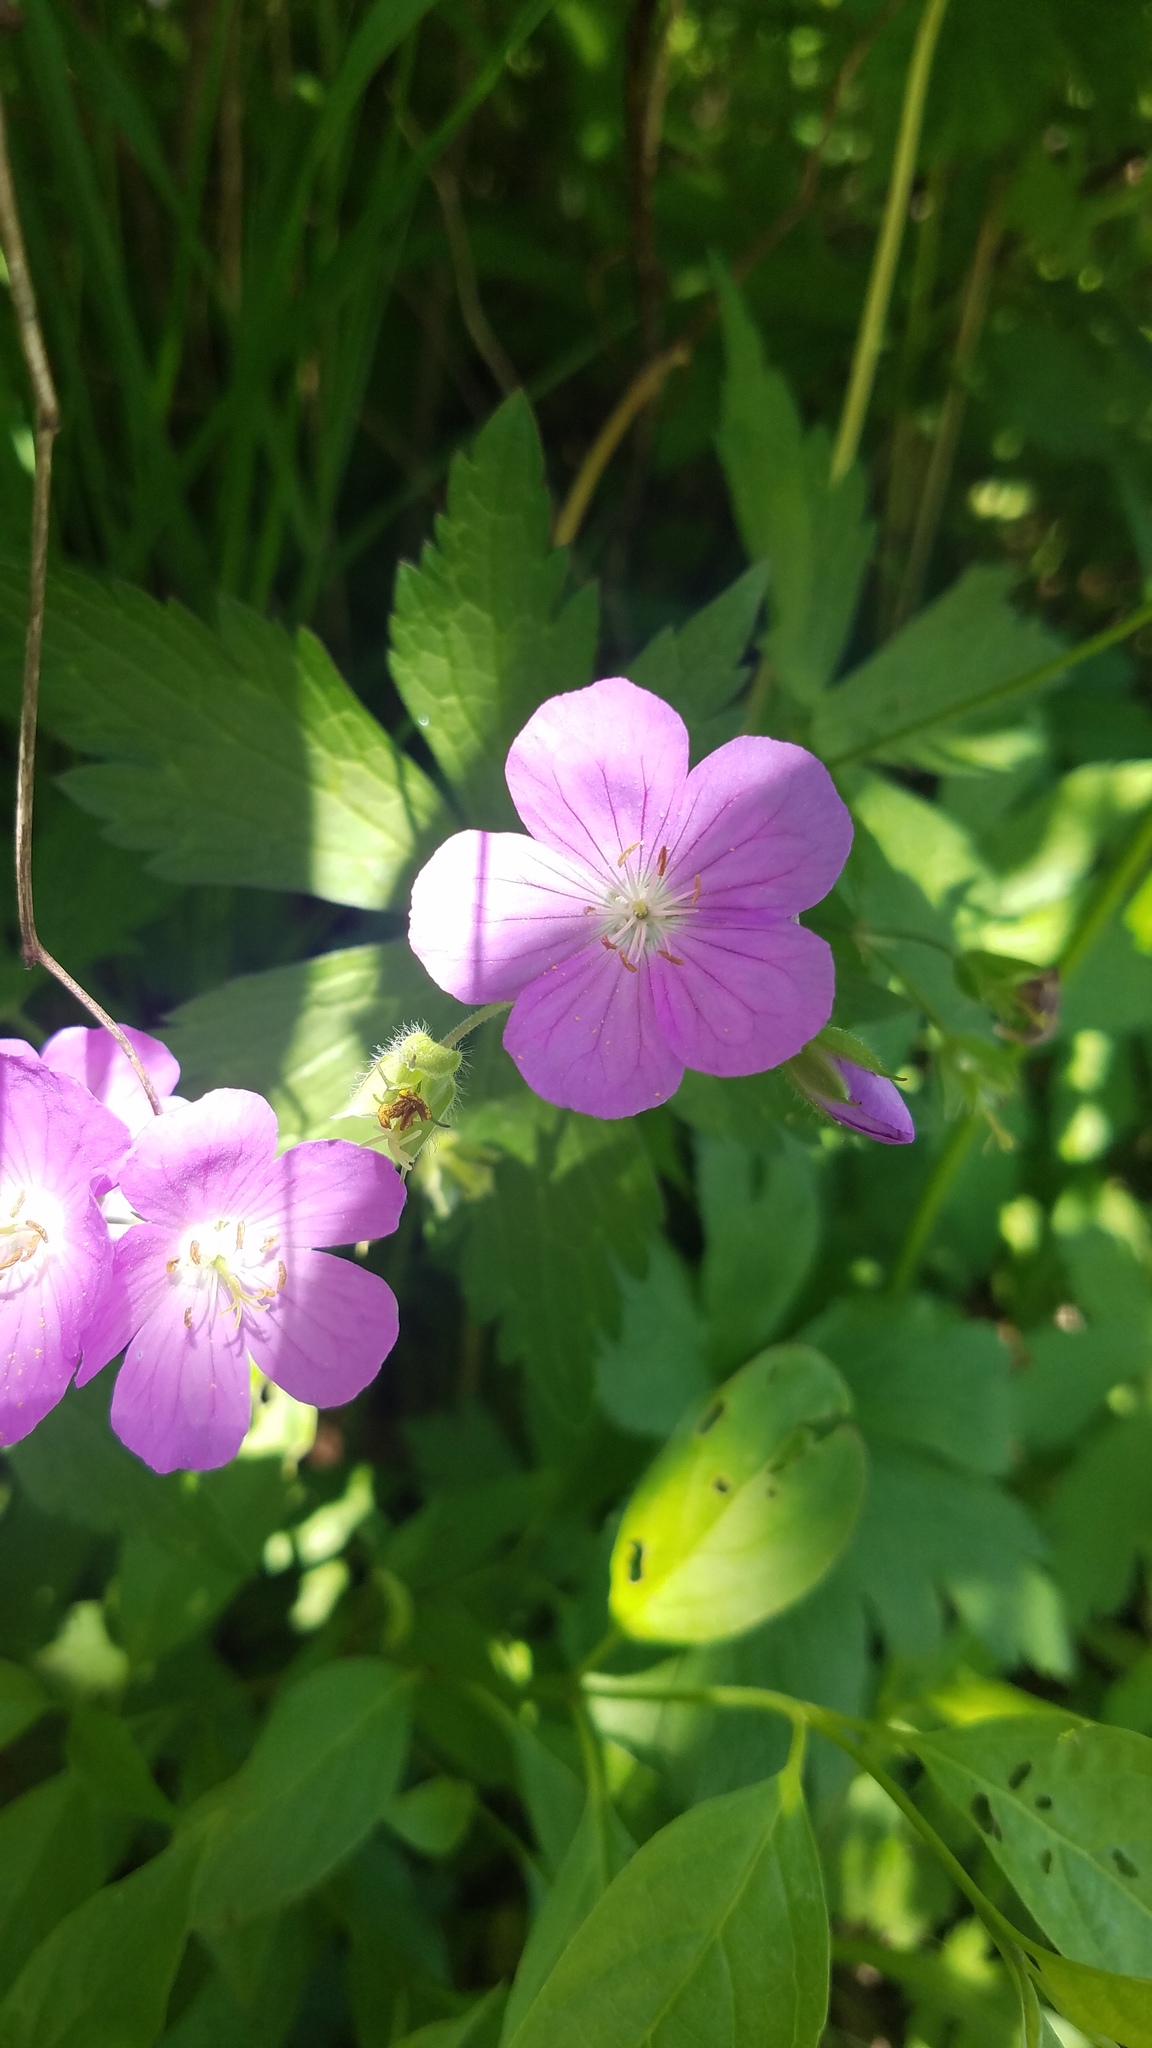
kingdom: Plantae
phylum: Tracheophyta
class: Magnoliopsida
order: Geraniales
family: Geraniaceae
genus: Geranium
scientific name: Geranium maculatum
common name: Spotted geranium
